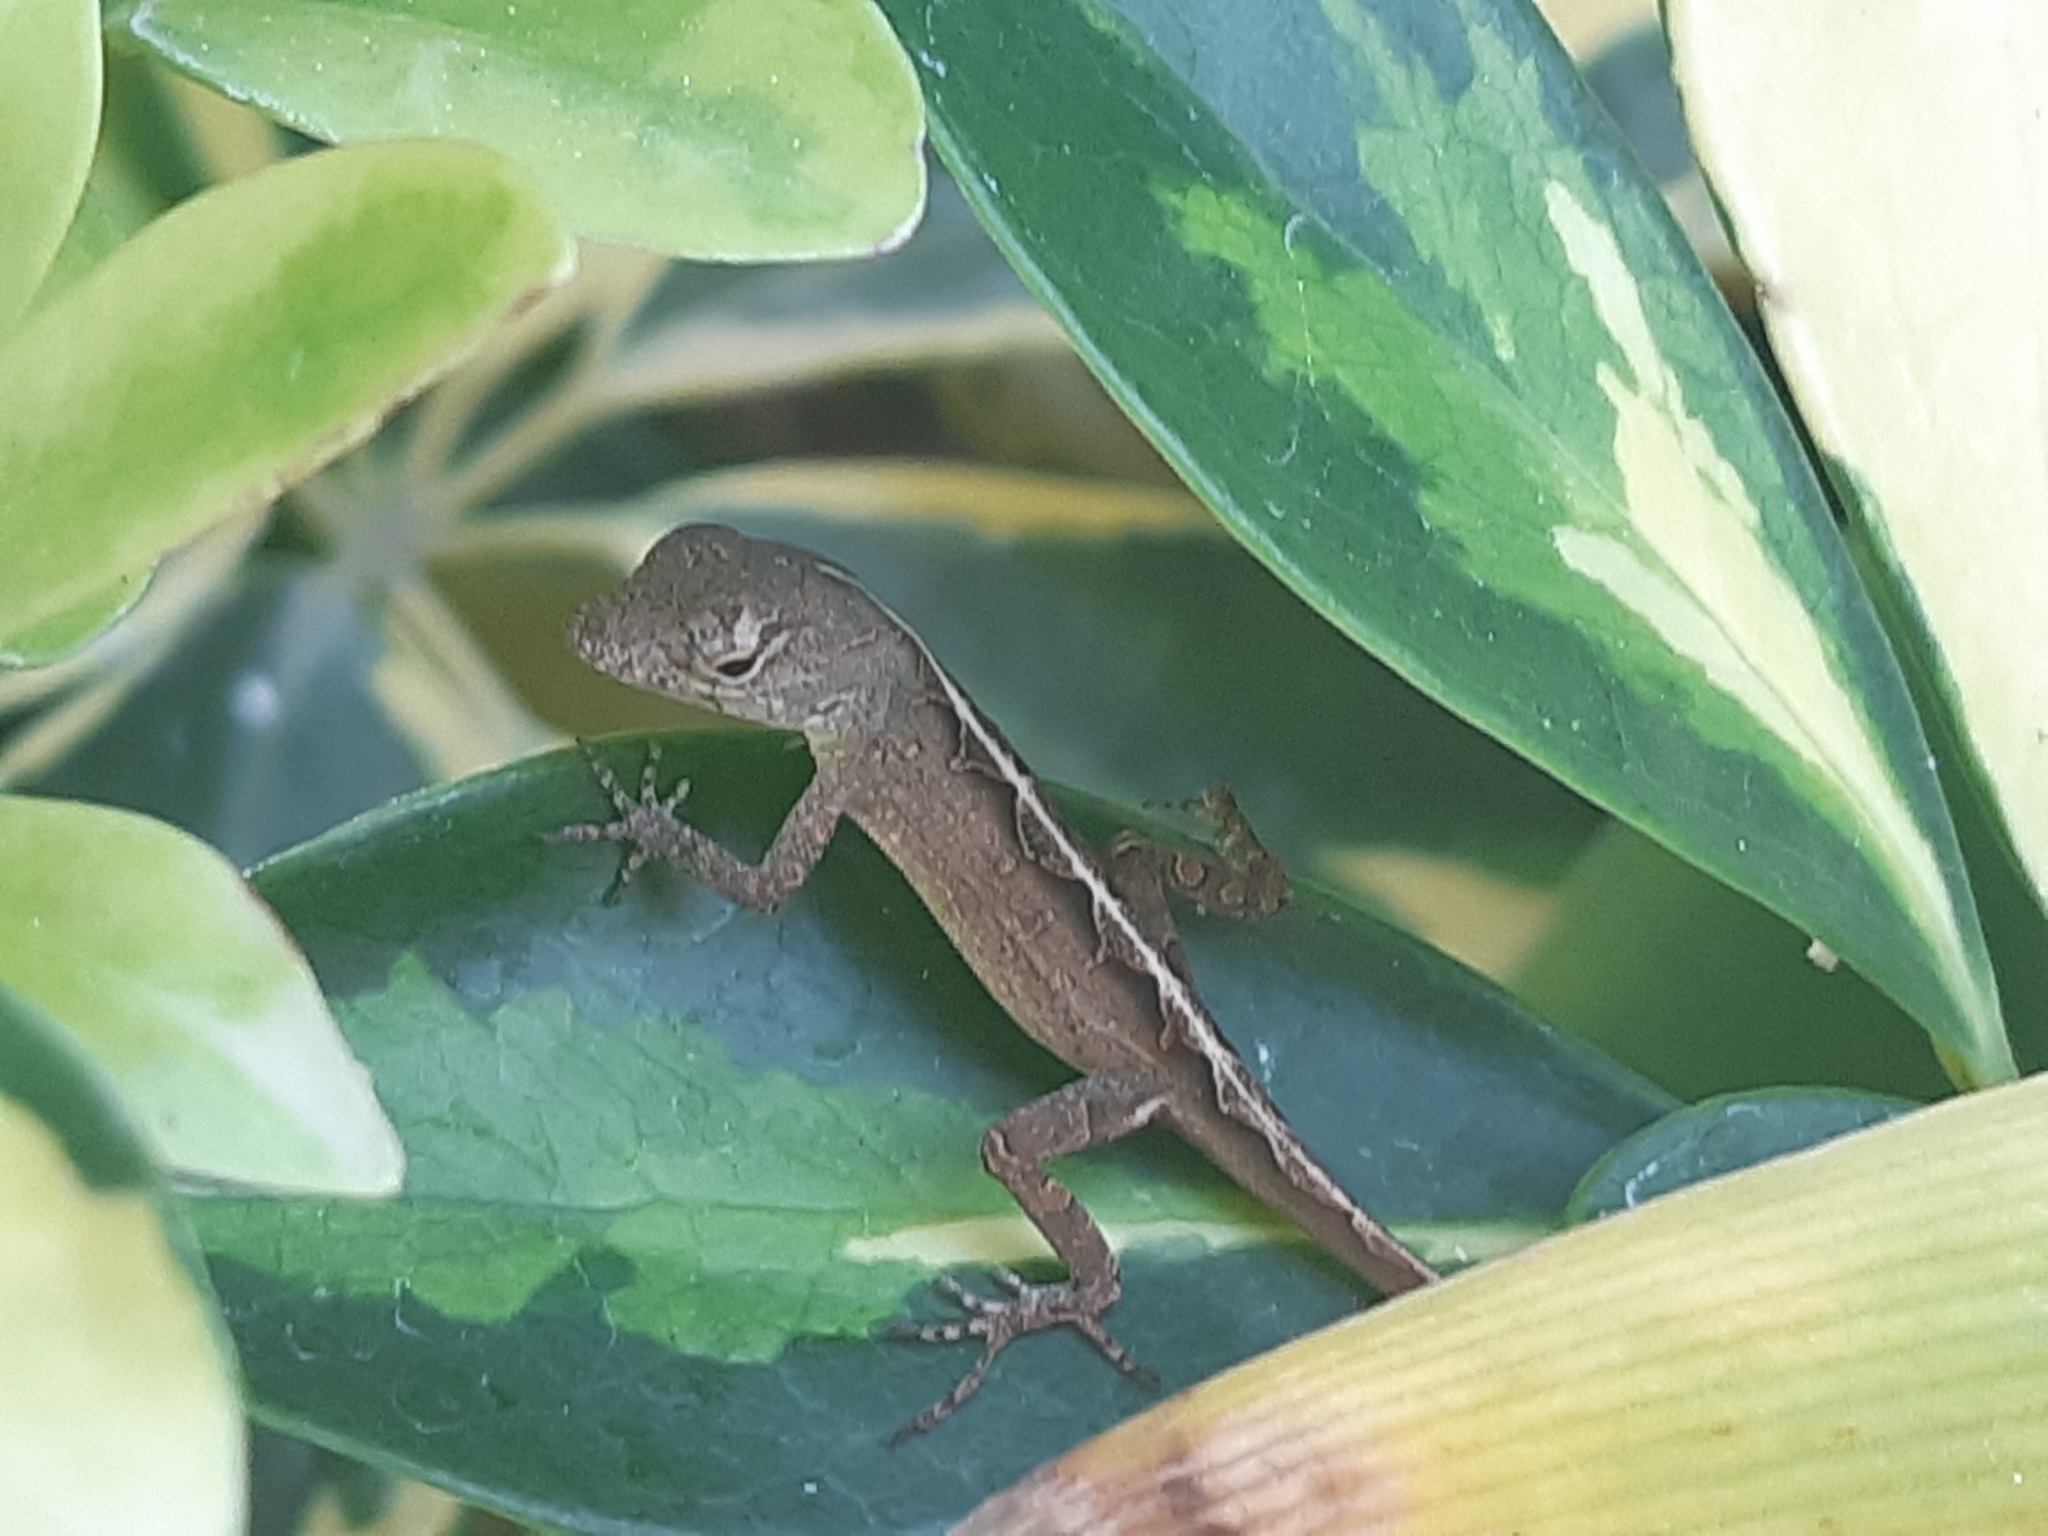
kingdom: Animalia
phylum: Chordata
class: Squamata
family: Dactyloidae
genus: Anolis
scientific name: Anolis sagrei
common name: Brown anole
